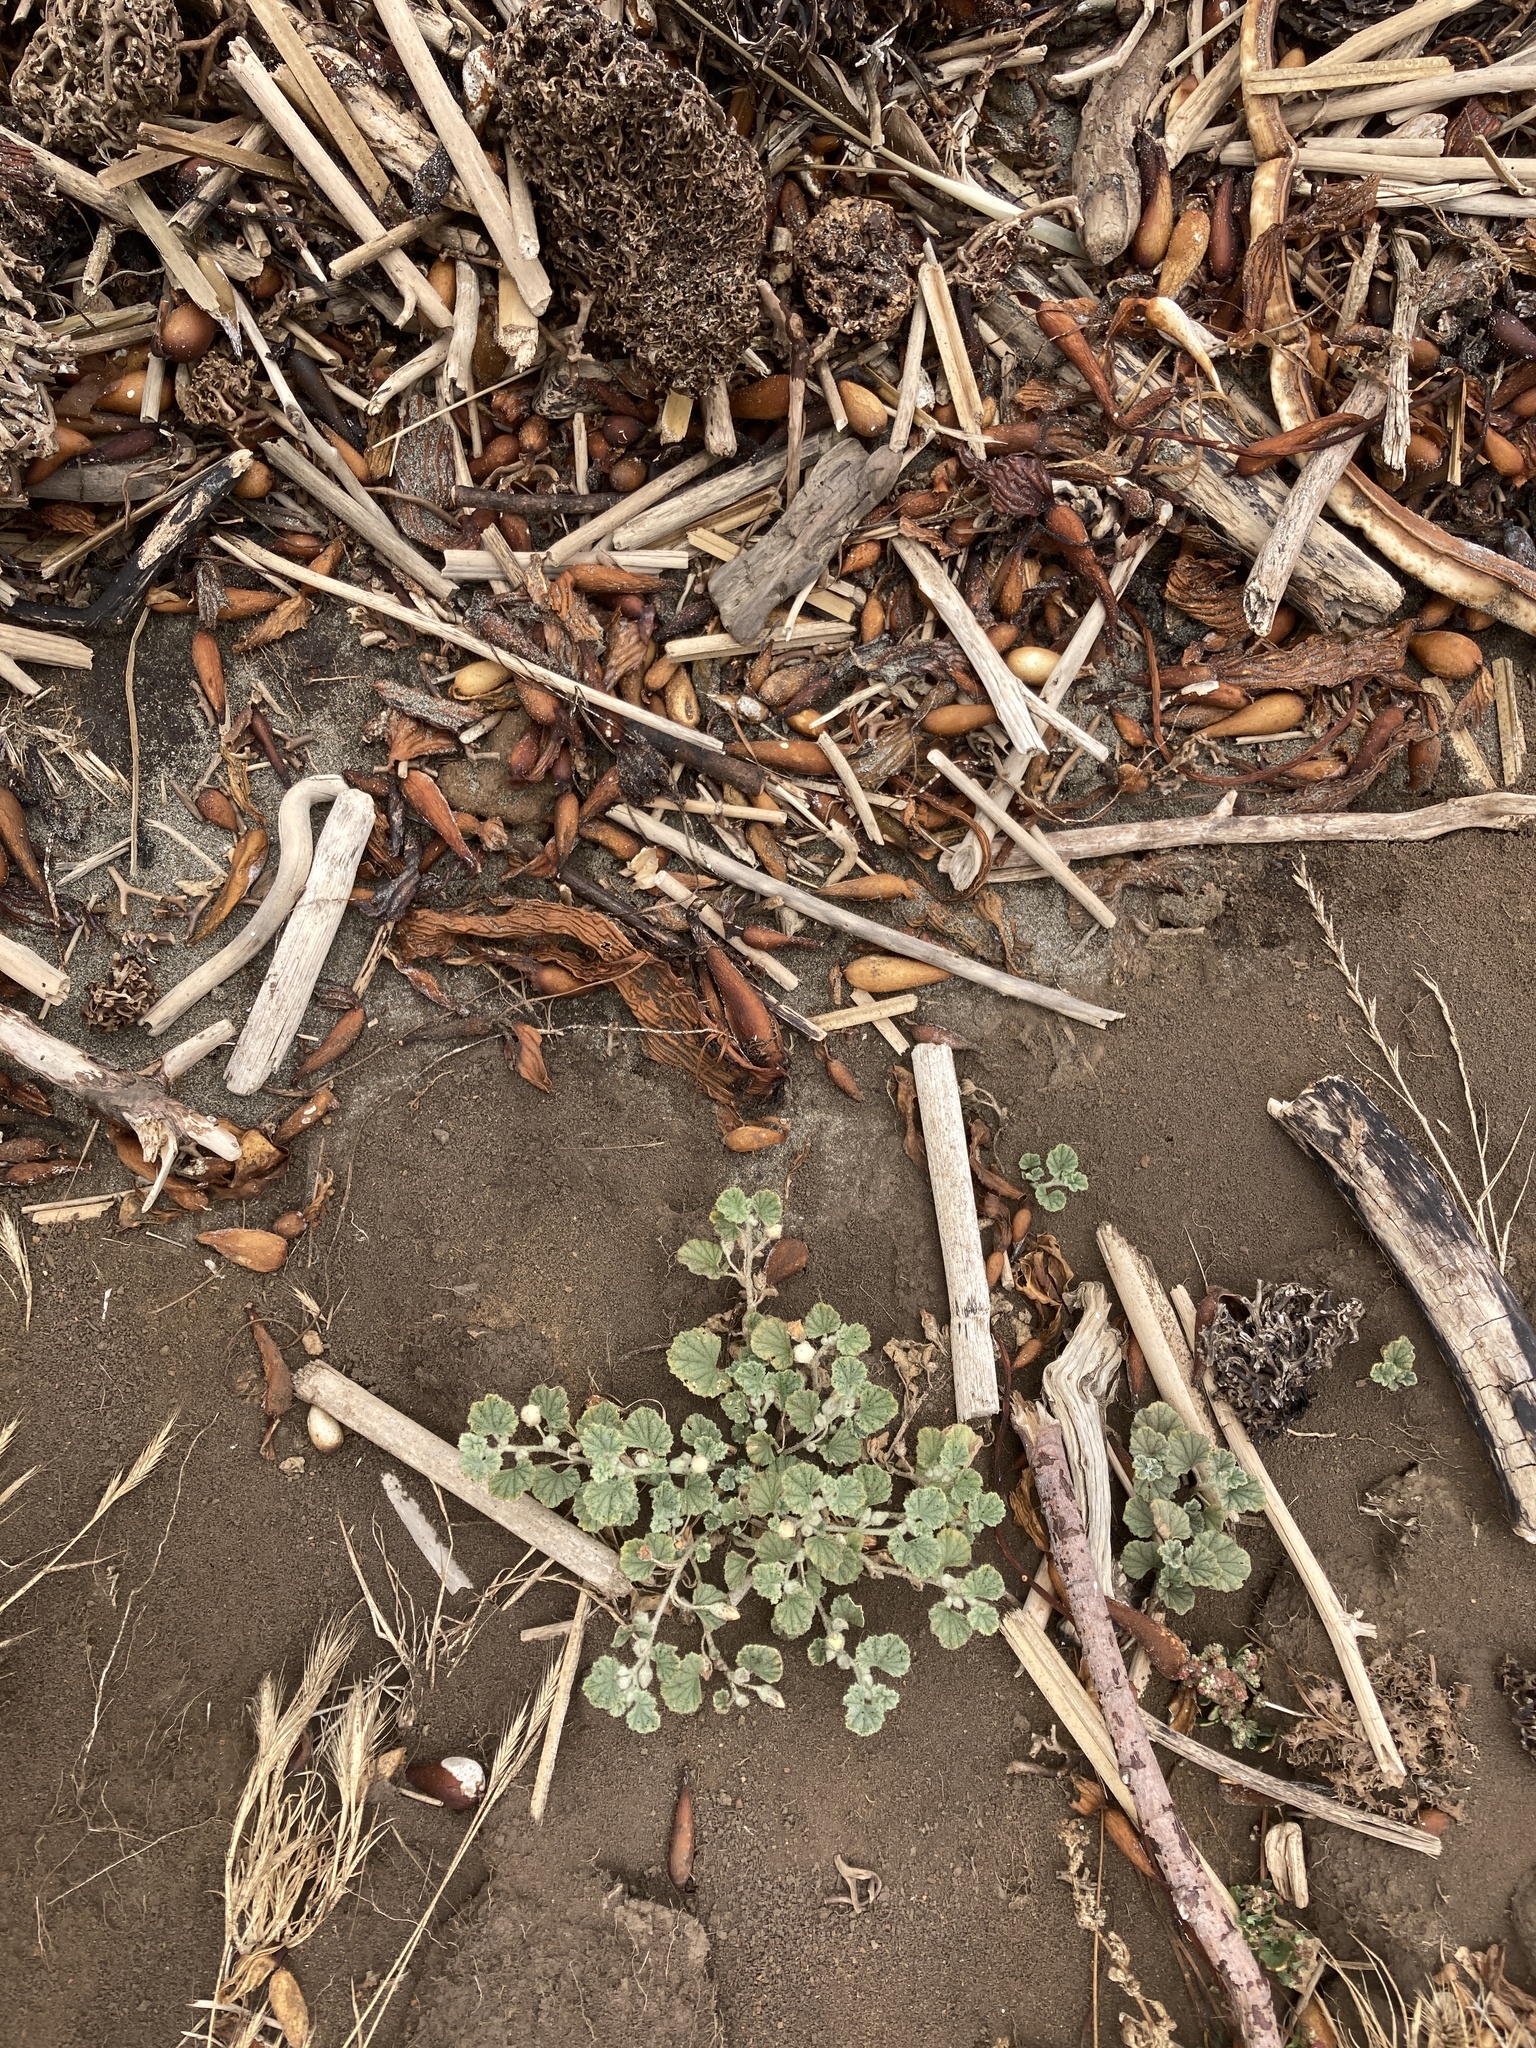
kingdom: Plantae
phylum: Tracheophyta
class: Magnoliopsida
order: Malvales
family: Malvaceae
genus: Malvella
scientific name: Malvella leprosa
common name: Alkali-mallow
